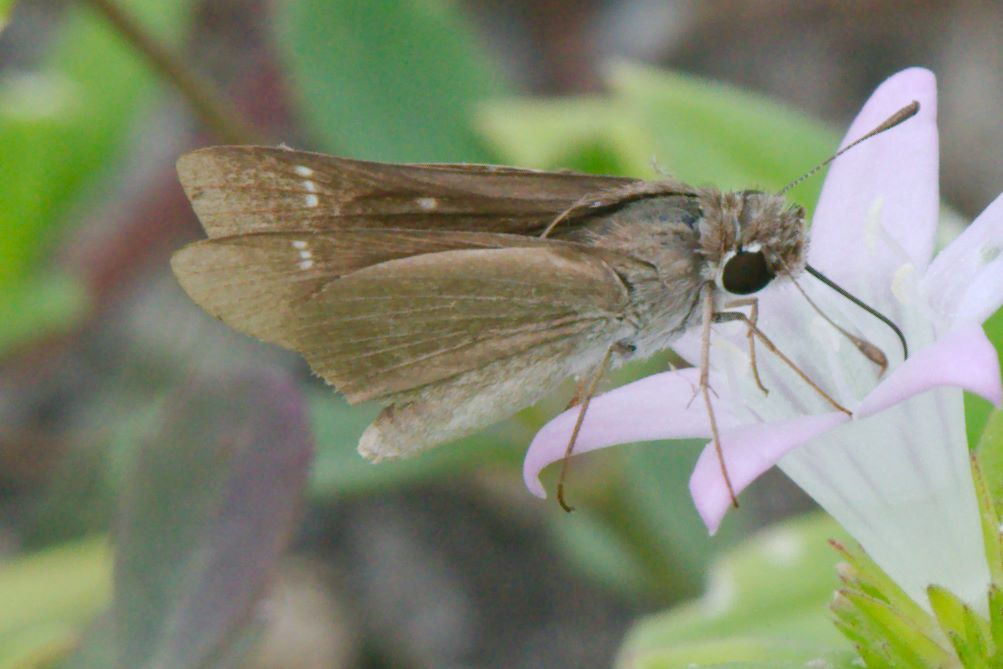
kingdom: Animalia
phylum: Arthropoda
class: Insecta
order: Lepidoptera
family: Hesperiidae
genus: Lerodea
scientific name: Lerodea eufala
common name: Eufala skipper
